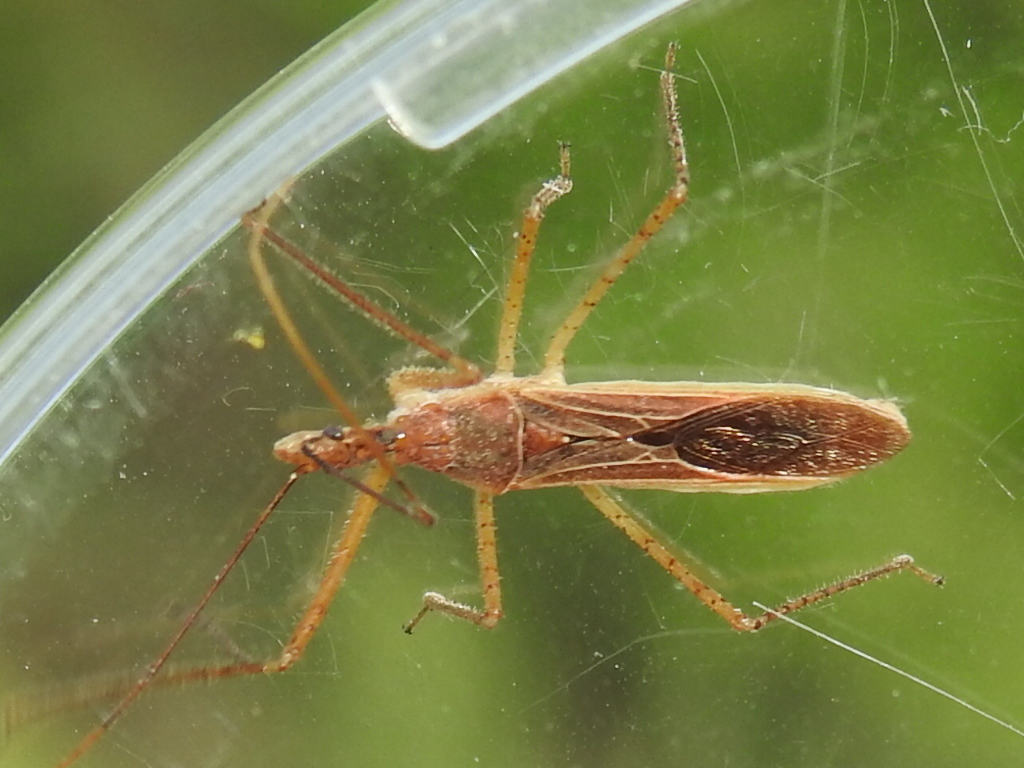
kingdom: Animalia
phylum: Arthropoda
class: Insecta
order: Hemiptera
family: Reduviidae
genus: Zelus
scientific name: Zelus cervicalis
